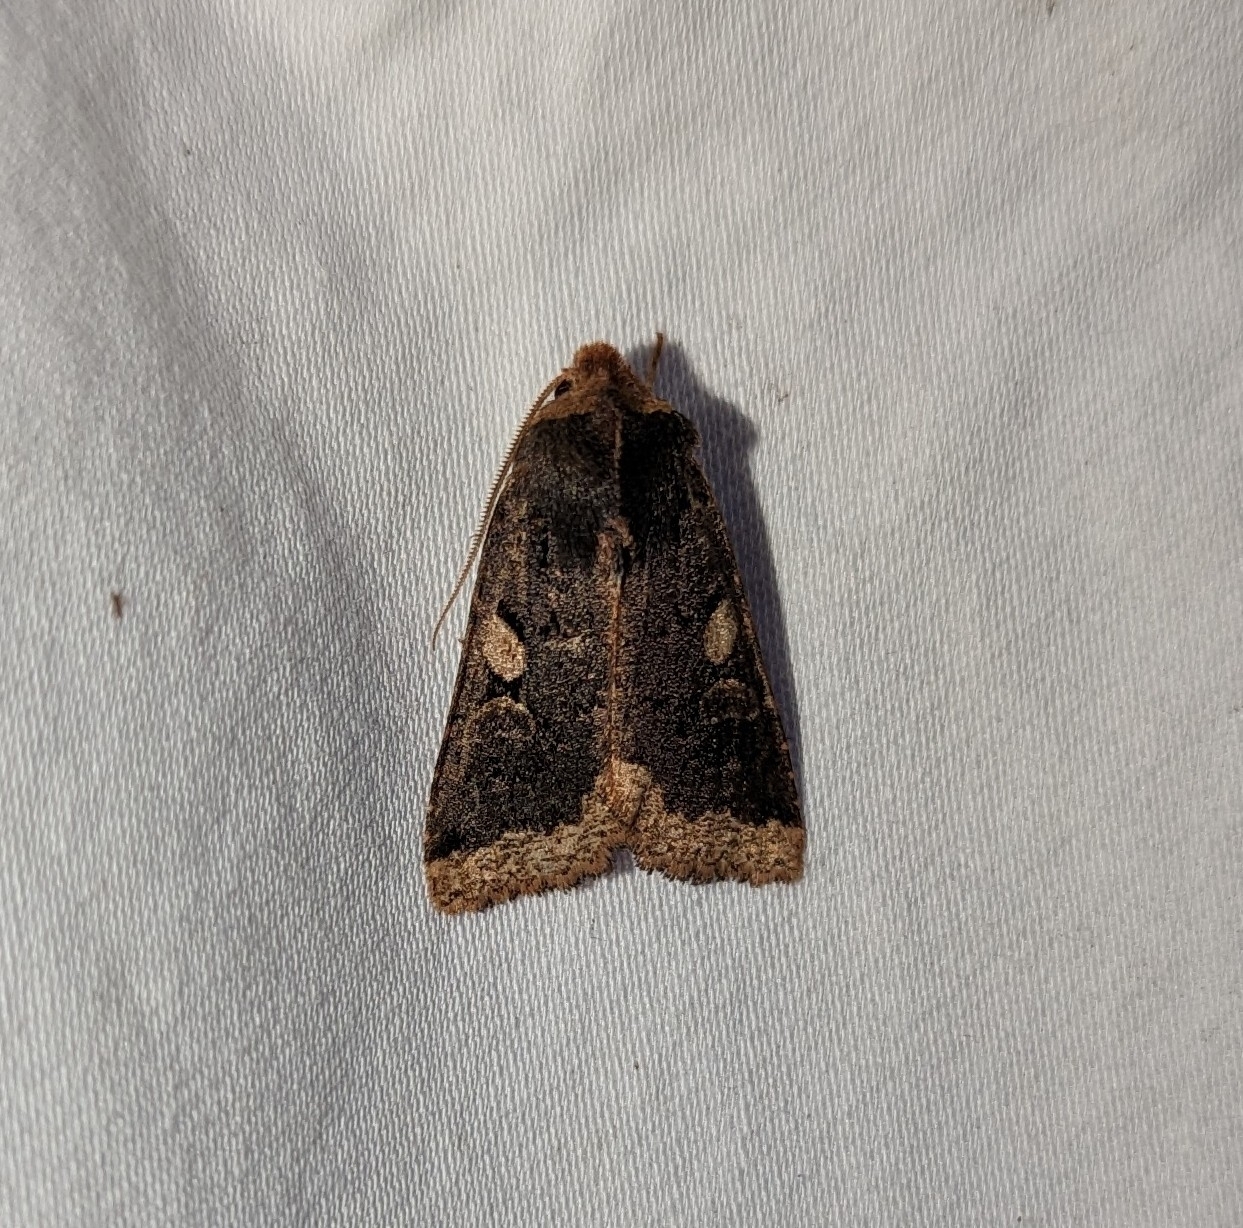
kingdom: Animalia
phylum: Arthropoda
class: Insecta
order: Lepidoptera
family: Noctuidae
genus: Orthosia
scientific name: Orthosia praeses
